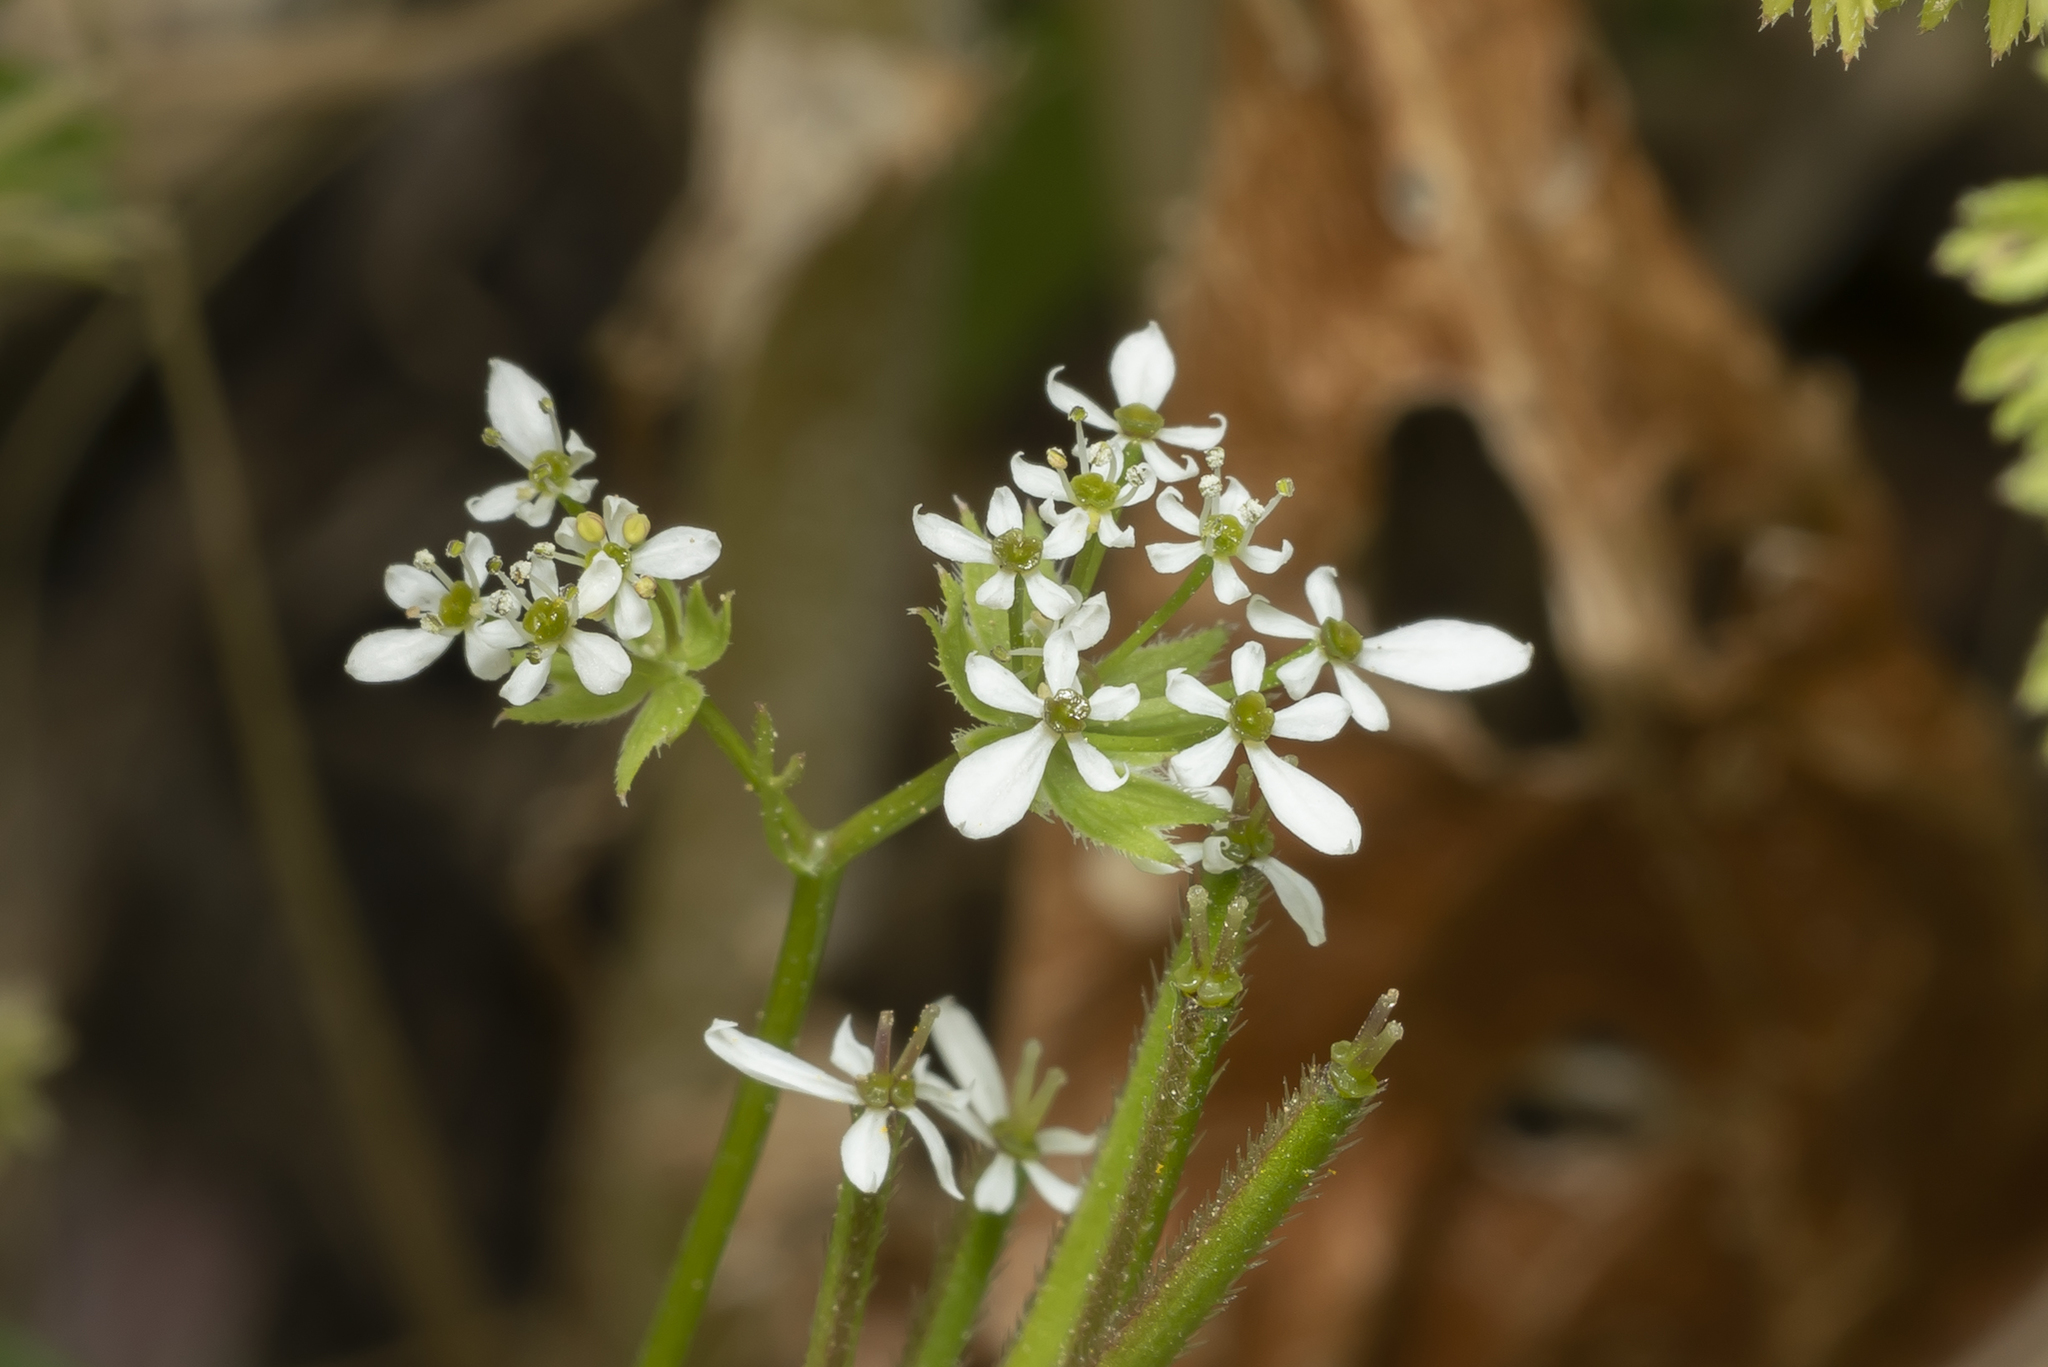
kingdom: Plantae
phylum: Tracheophyta
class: Magnoliopsida
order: Apiales
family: Apiaceae
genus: Scandix
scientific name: Scandix pecten-veneris
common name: Shepherd's-needle
